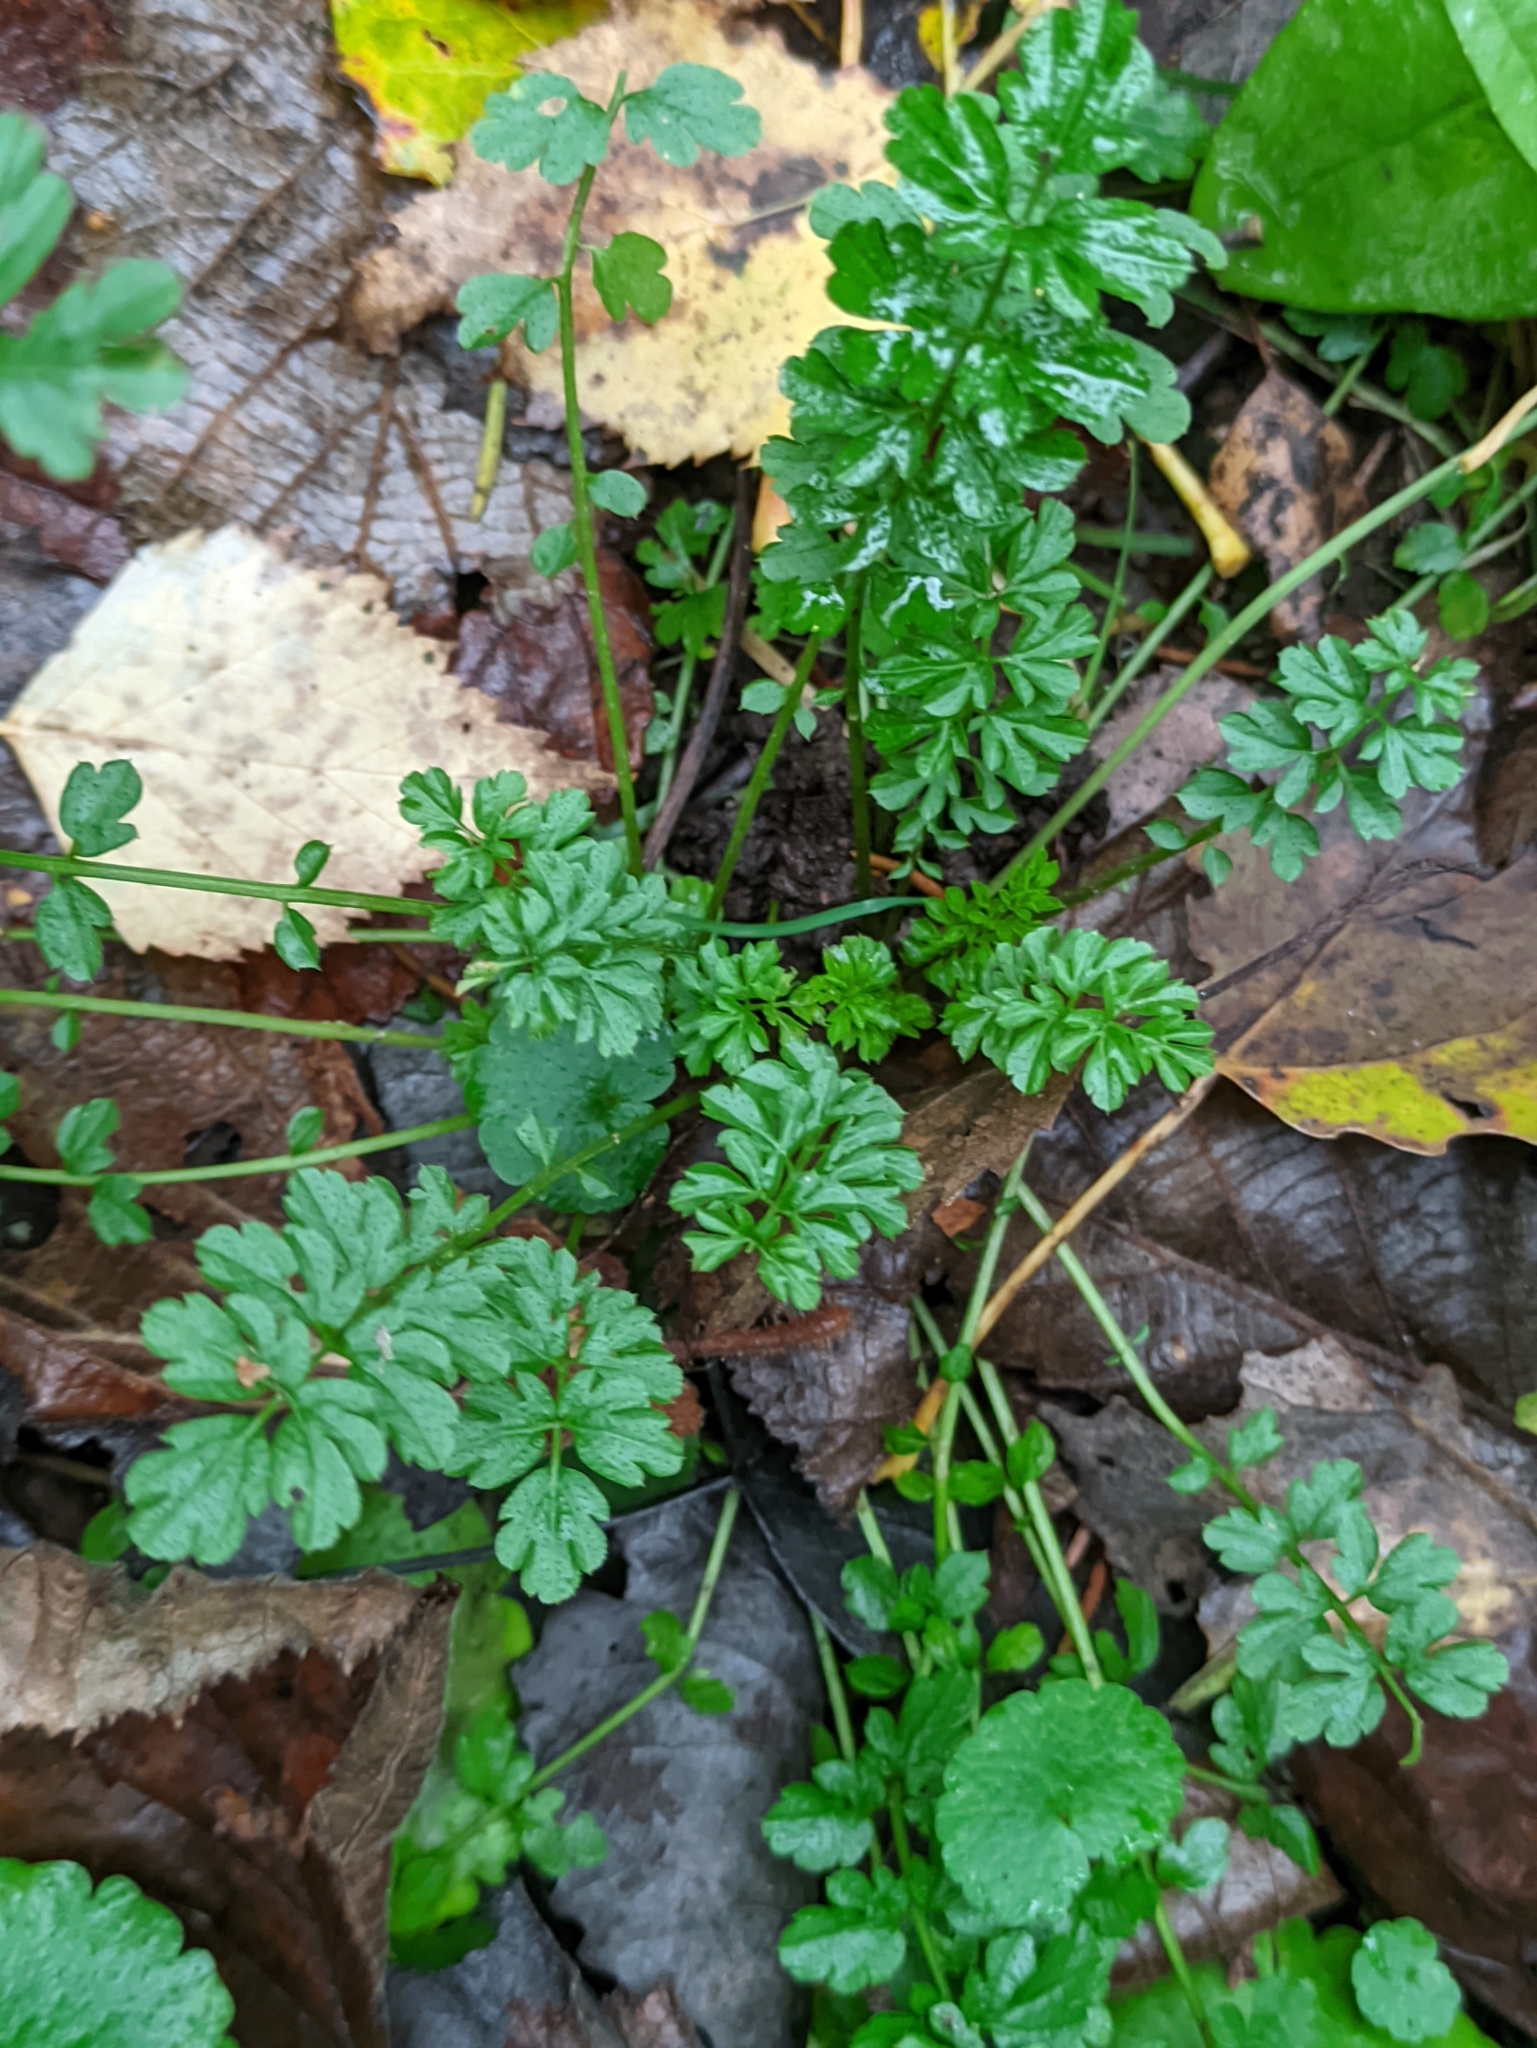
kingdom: Plantae
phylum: Tracheophyta
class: Magnoliopsida
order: Brassicales
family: Brassicaceae
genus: Cardamine
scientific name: Cardamine impatiens
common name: Narrow-leaved bitter-cress
